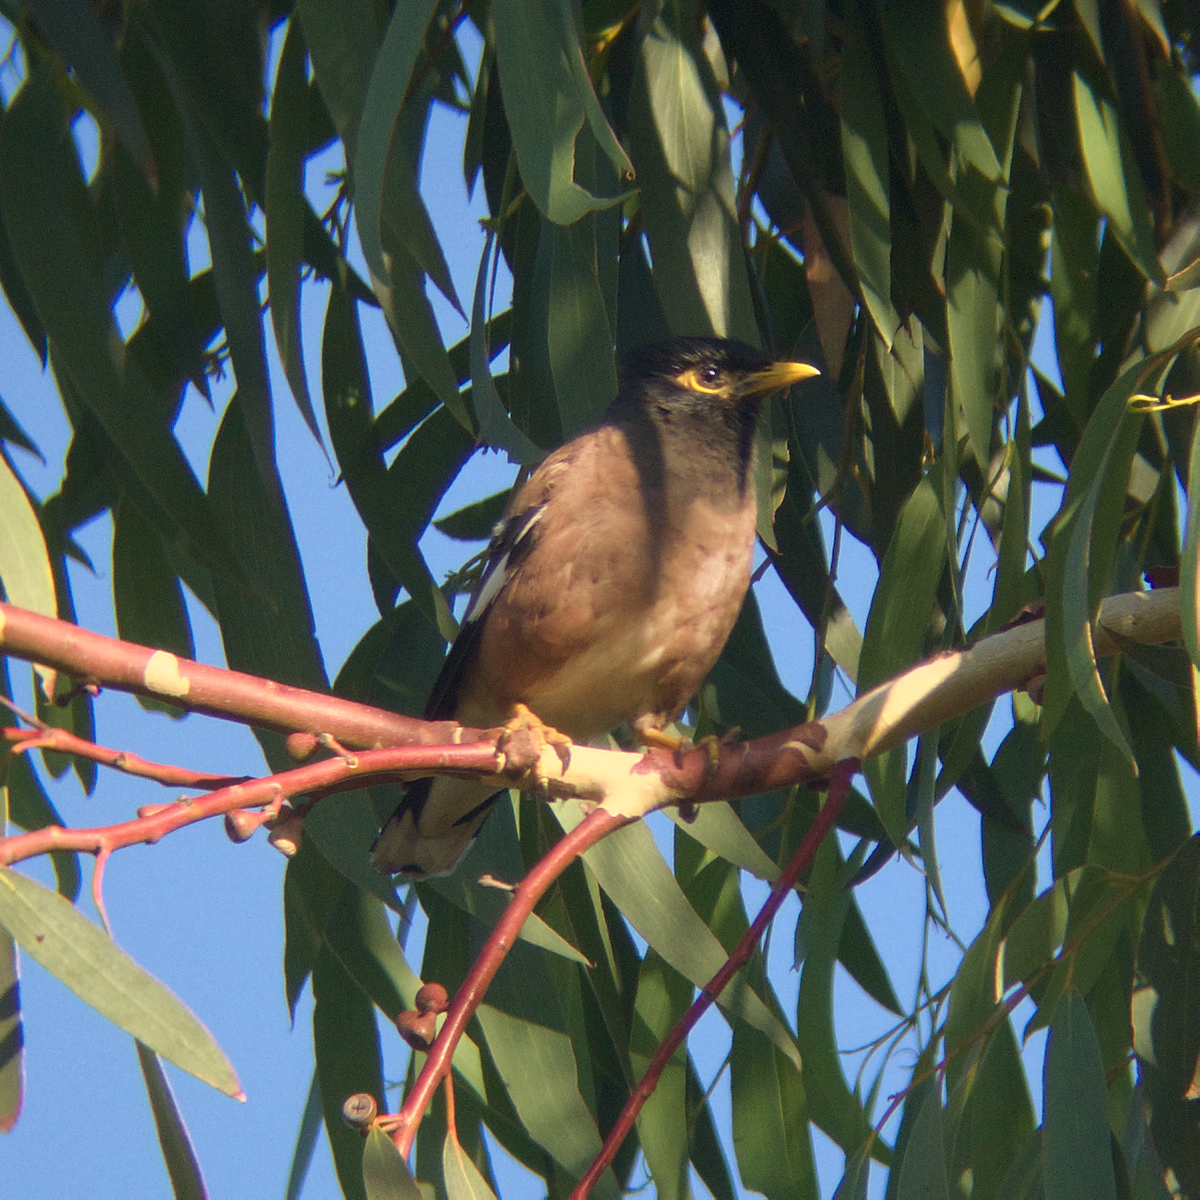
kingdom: Animalia
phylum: Chordata
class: Aves
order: Passeriformes
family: Sturnidae
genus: Acridotheres
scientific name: Acridotheres tristis
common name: Common myna
